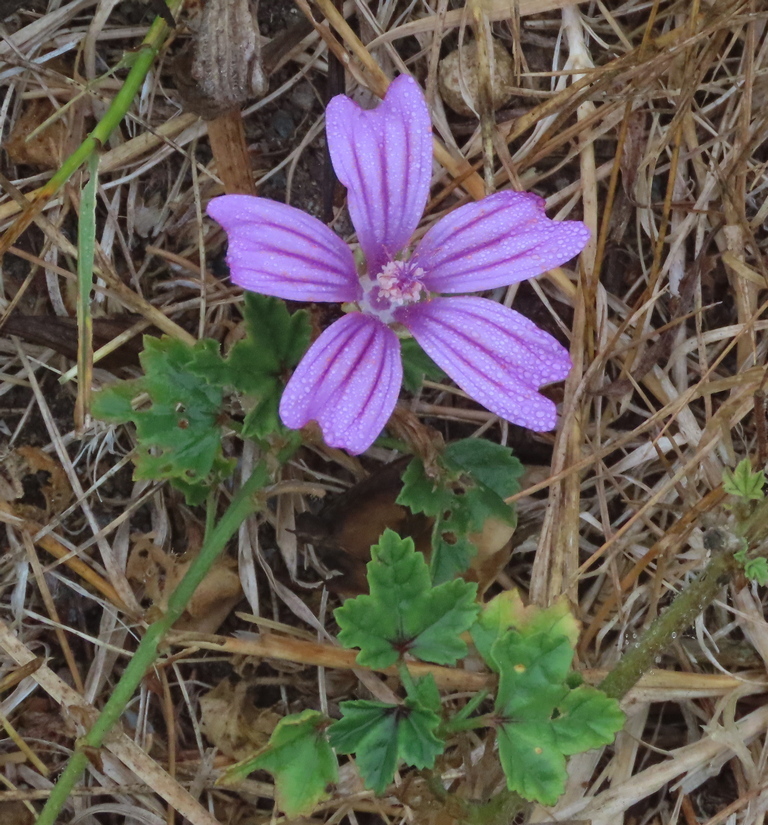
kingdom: Plantae
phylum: Tracheophyta
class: Magnoliopsida
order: Malvales
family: Malvaceae
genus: Malva
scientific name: Malva sylvestris
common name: Common mallow
